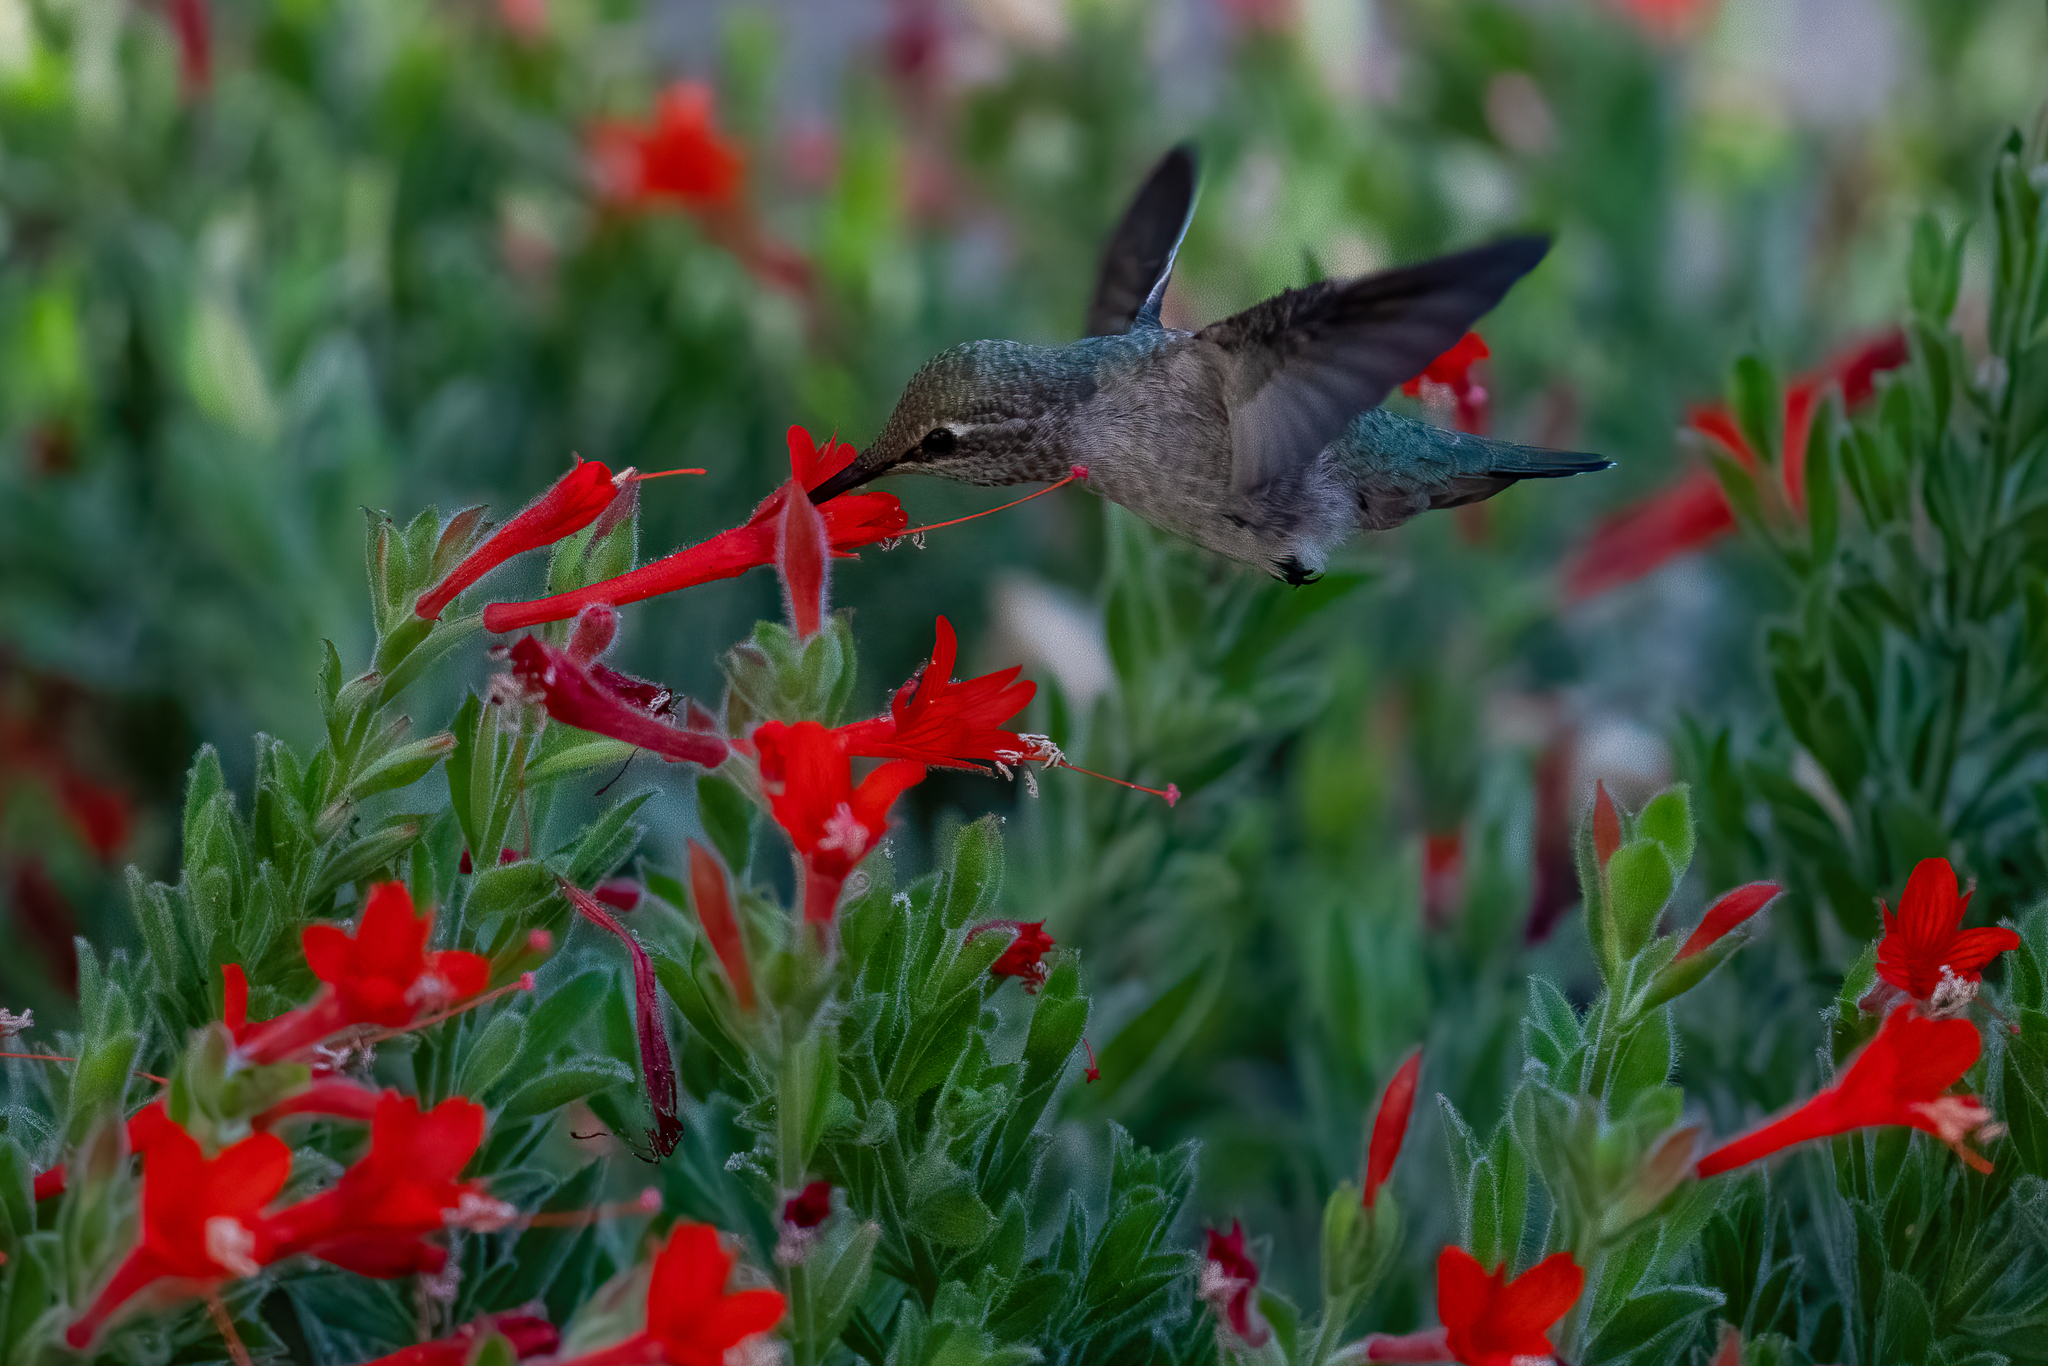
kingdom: Animalia
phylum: Chordata
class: Aves
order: Apodiformes
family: Trochilidae
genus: Calypte
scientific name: Calypte anna
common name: Anna's hummingbird
